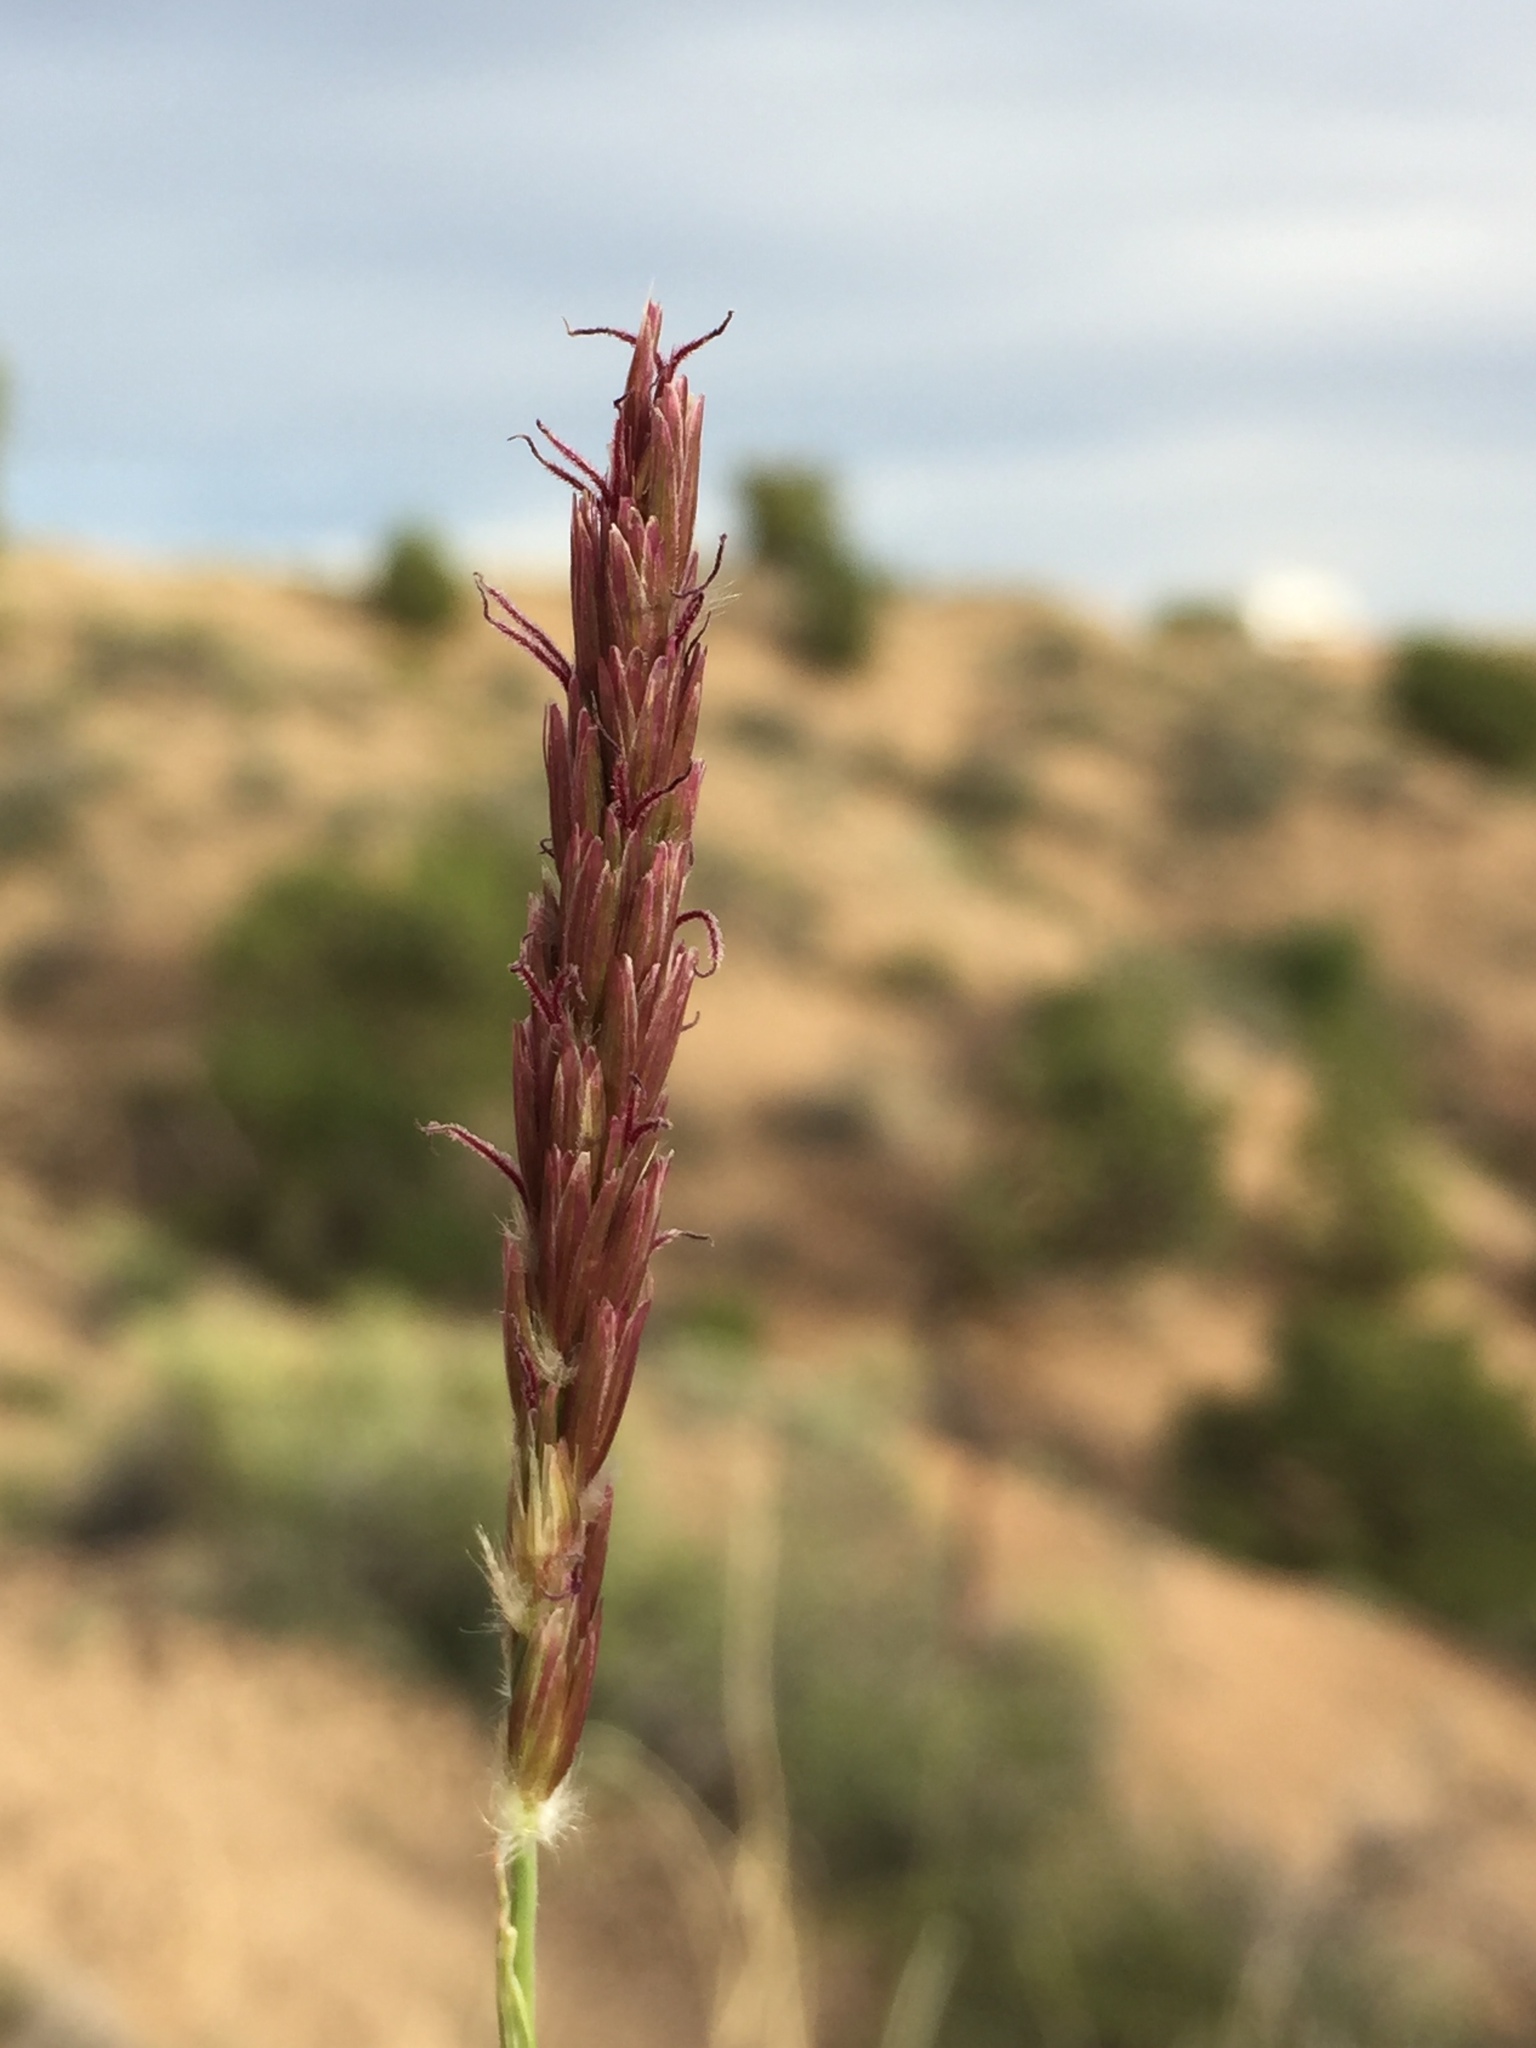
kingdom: Plantae
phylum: Tracheophyta
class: Liliopsida
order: Poales
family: Poaceae
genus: Hilaria
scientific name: Hilaria jamesii
